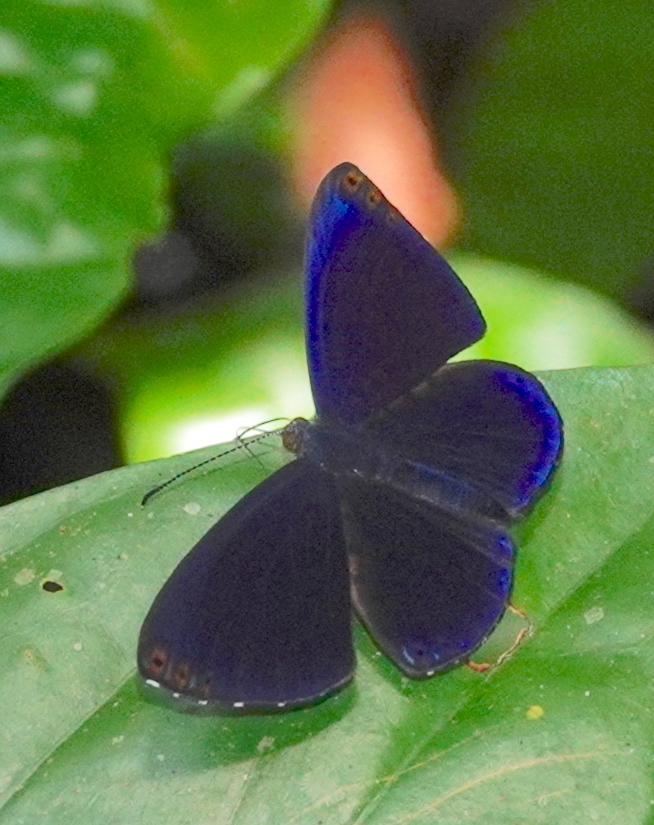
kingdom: Animalia
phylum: Arthropoda
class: Insecta
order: Lepidoptera
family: Riodinidae
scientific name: Riodinidae
